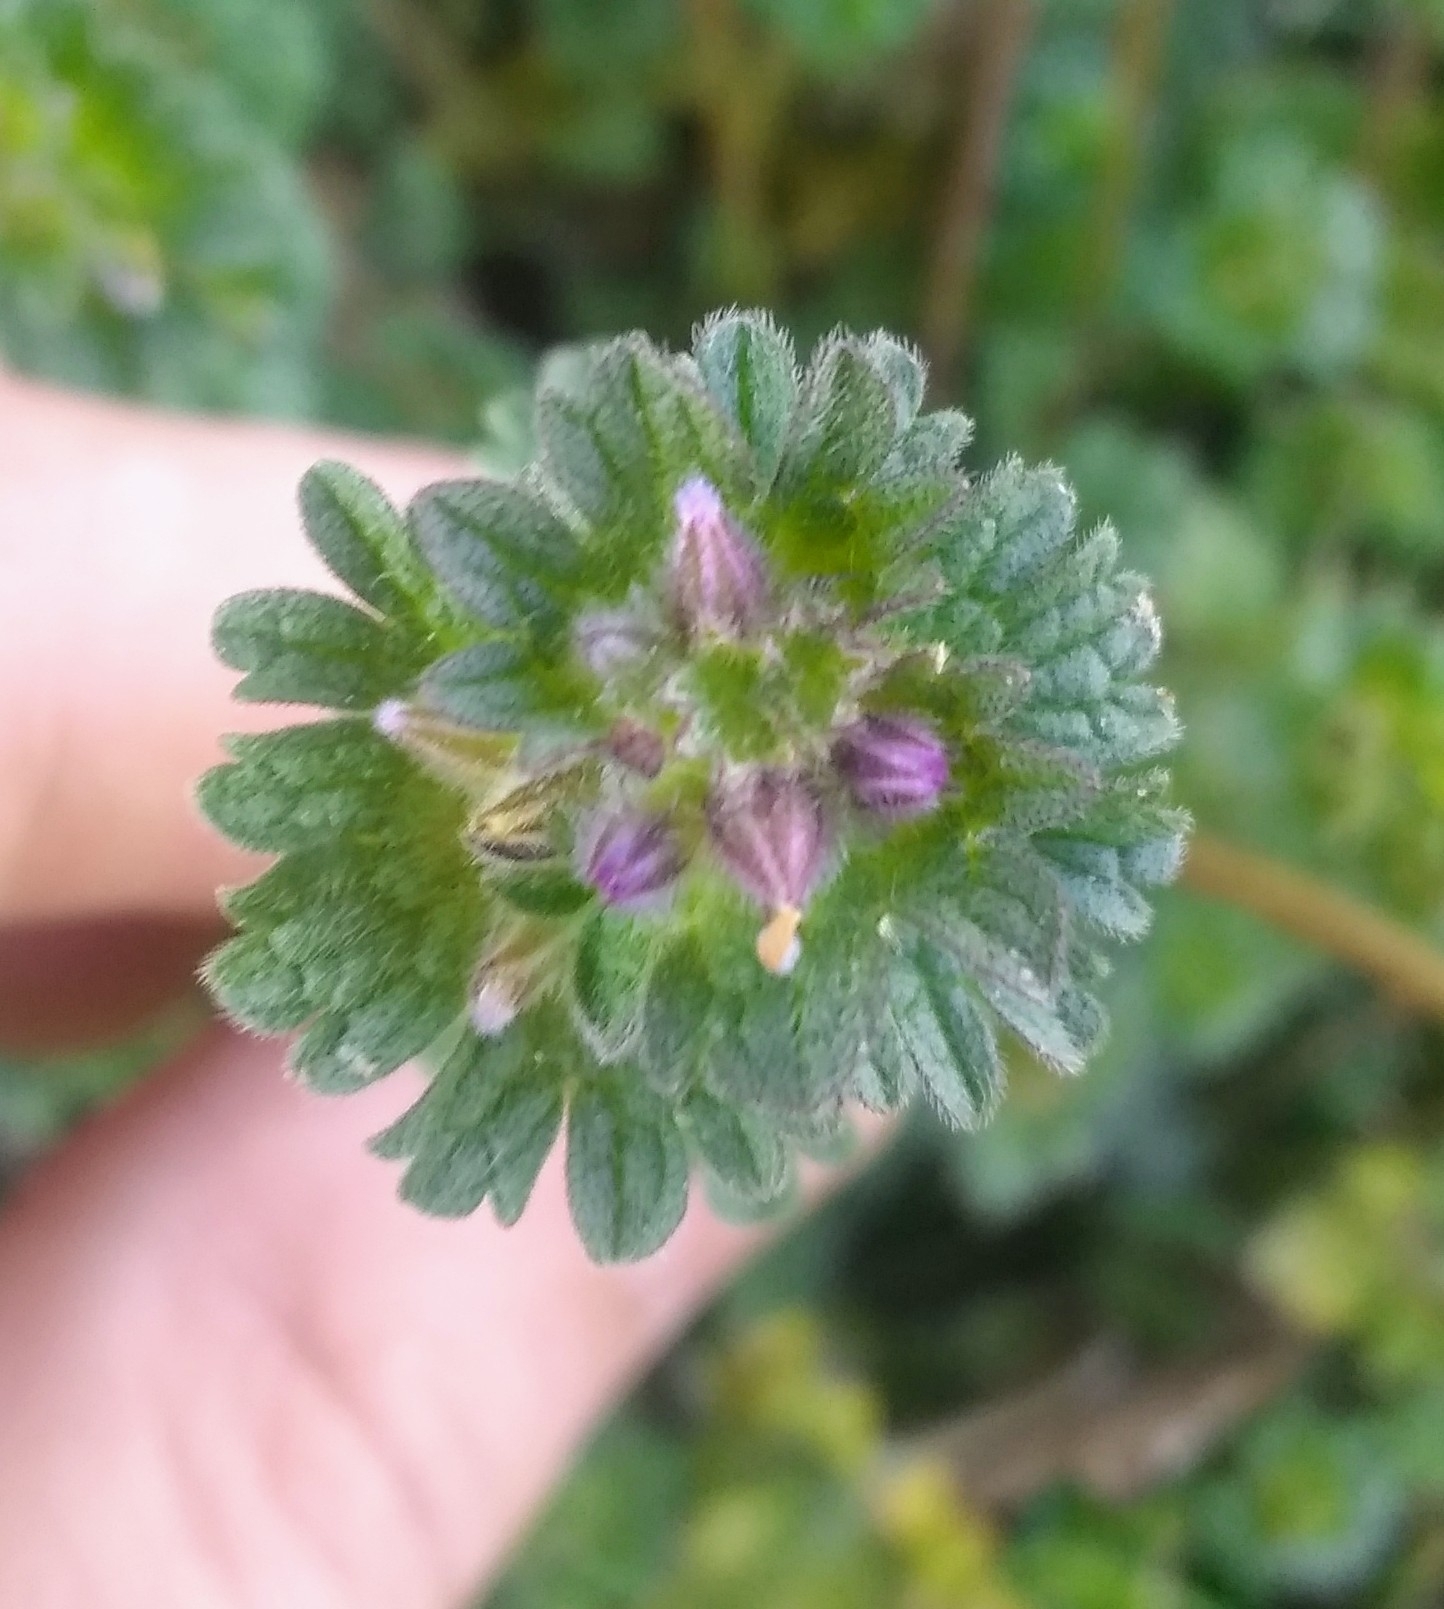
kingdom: Plantae
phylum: Tracheophyta
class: Magnoliopsida
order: Lamiales
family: Lamiaceae
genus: Lamium
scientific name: Lamium amplexicaule
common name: Henbit dead-nettle
